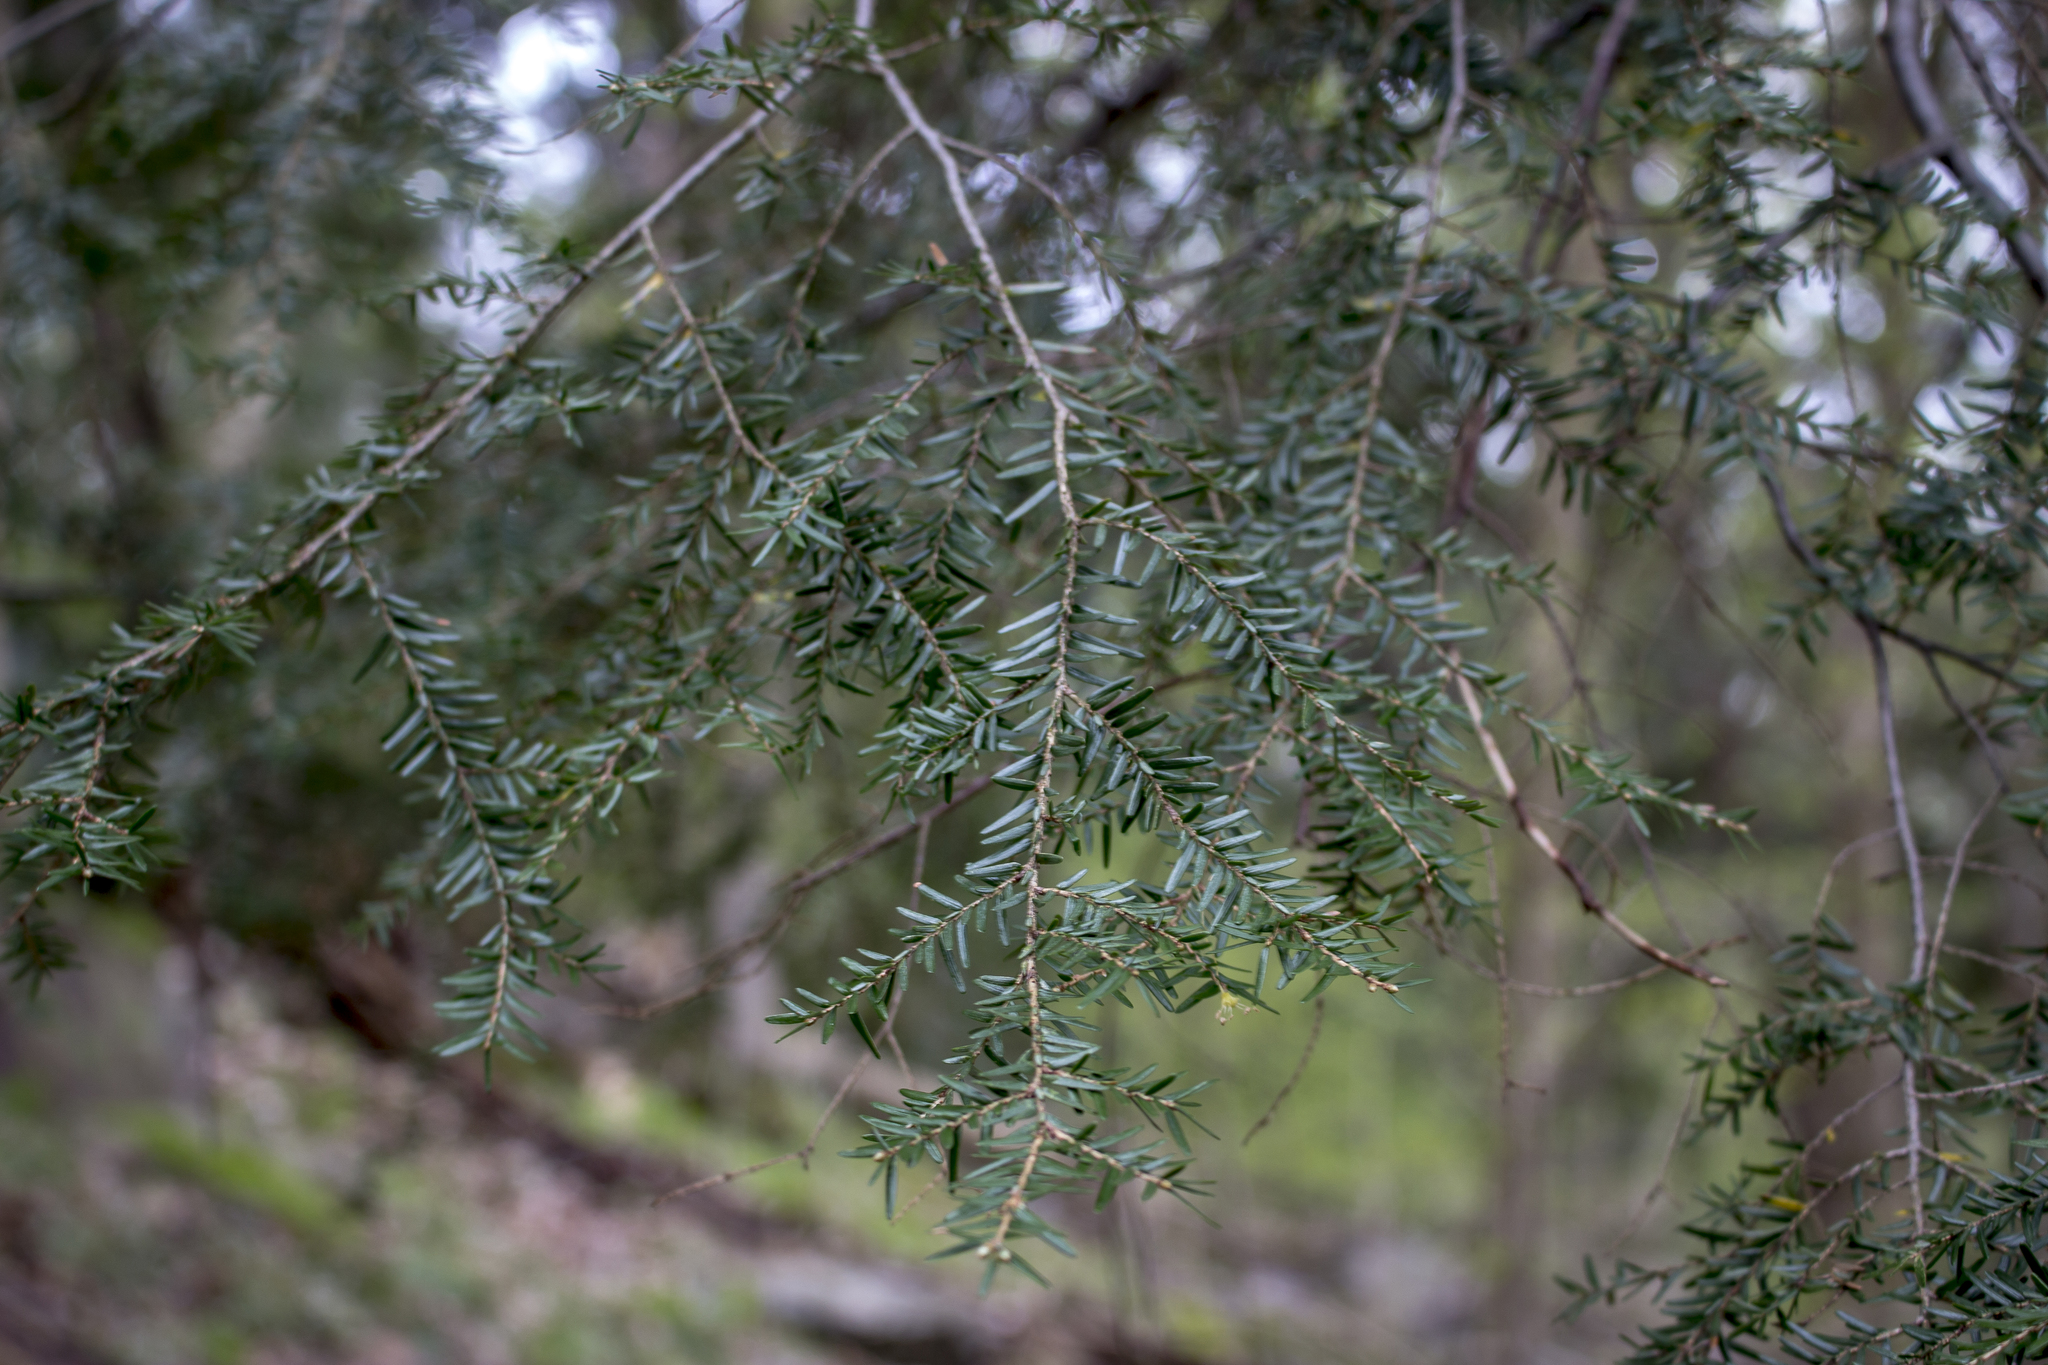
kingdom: Plantae
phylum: Tracheophyta
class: Pinopsida
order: Pinales
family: Pinaceae
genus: Tsuga
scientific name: Tsuga canadensis
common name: Eastern hemlock
